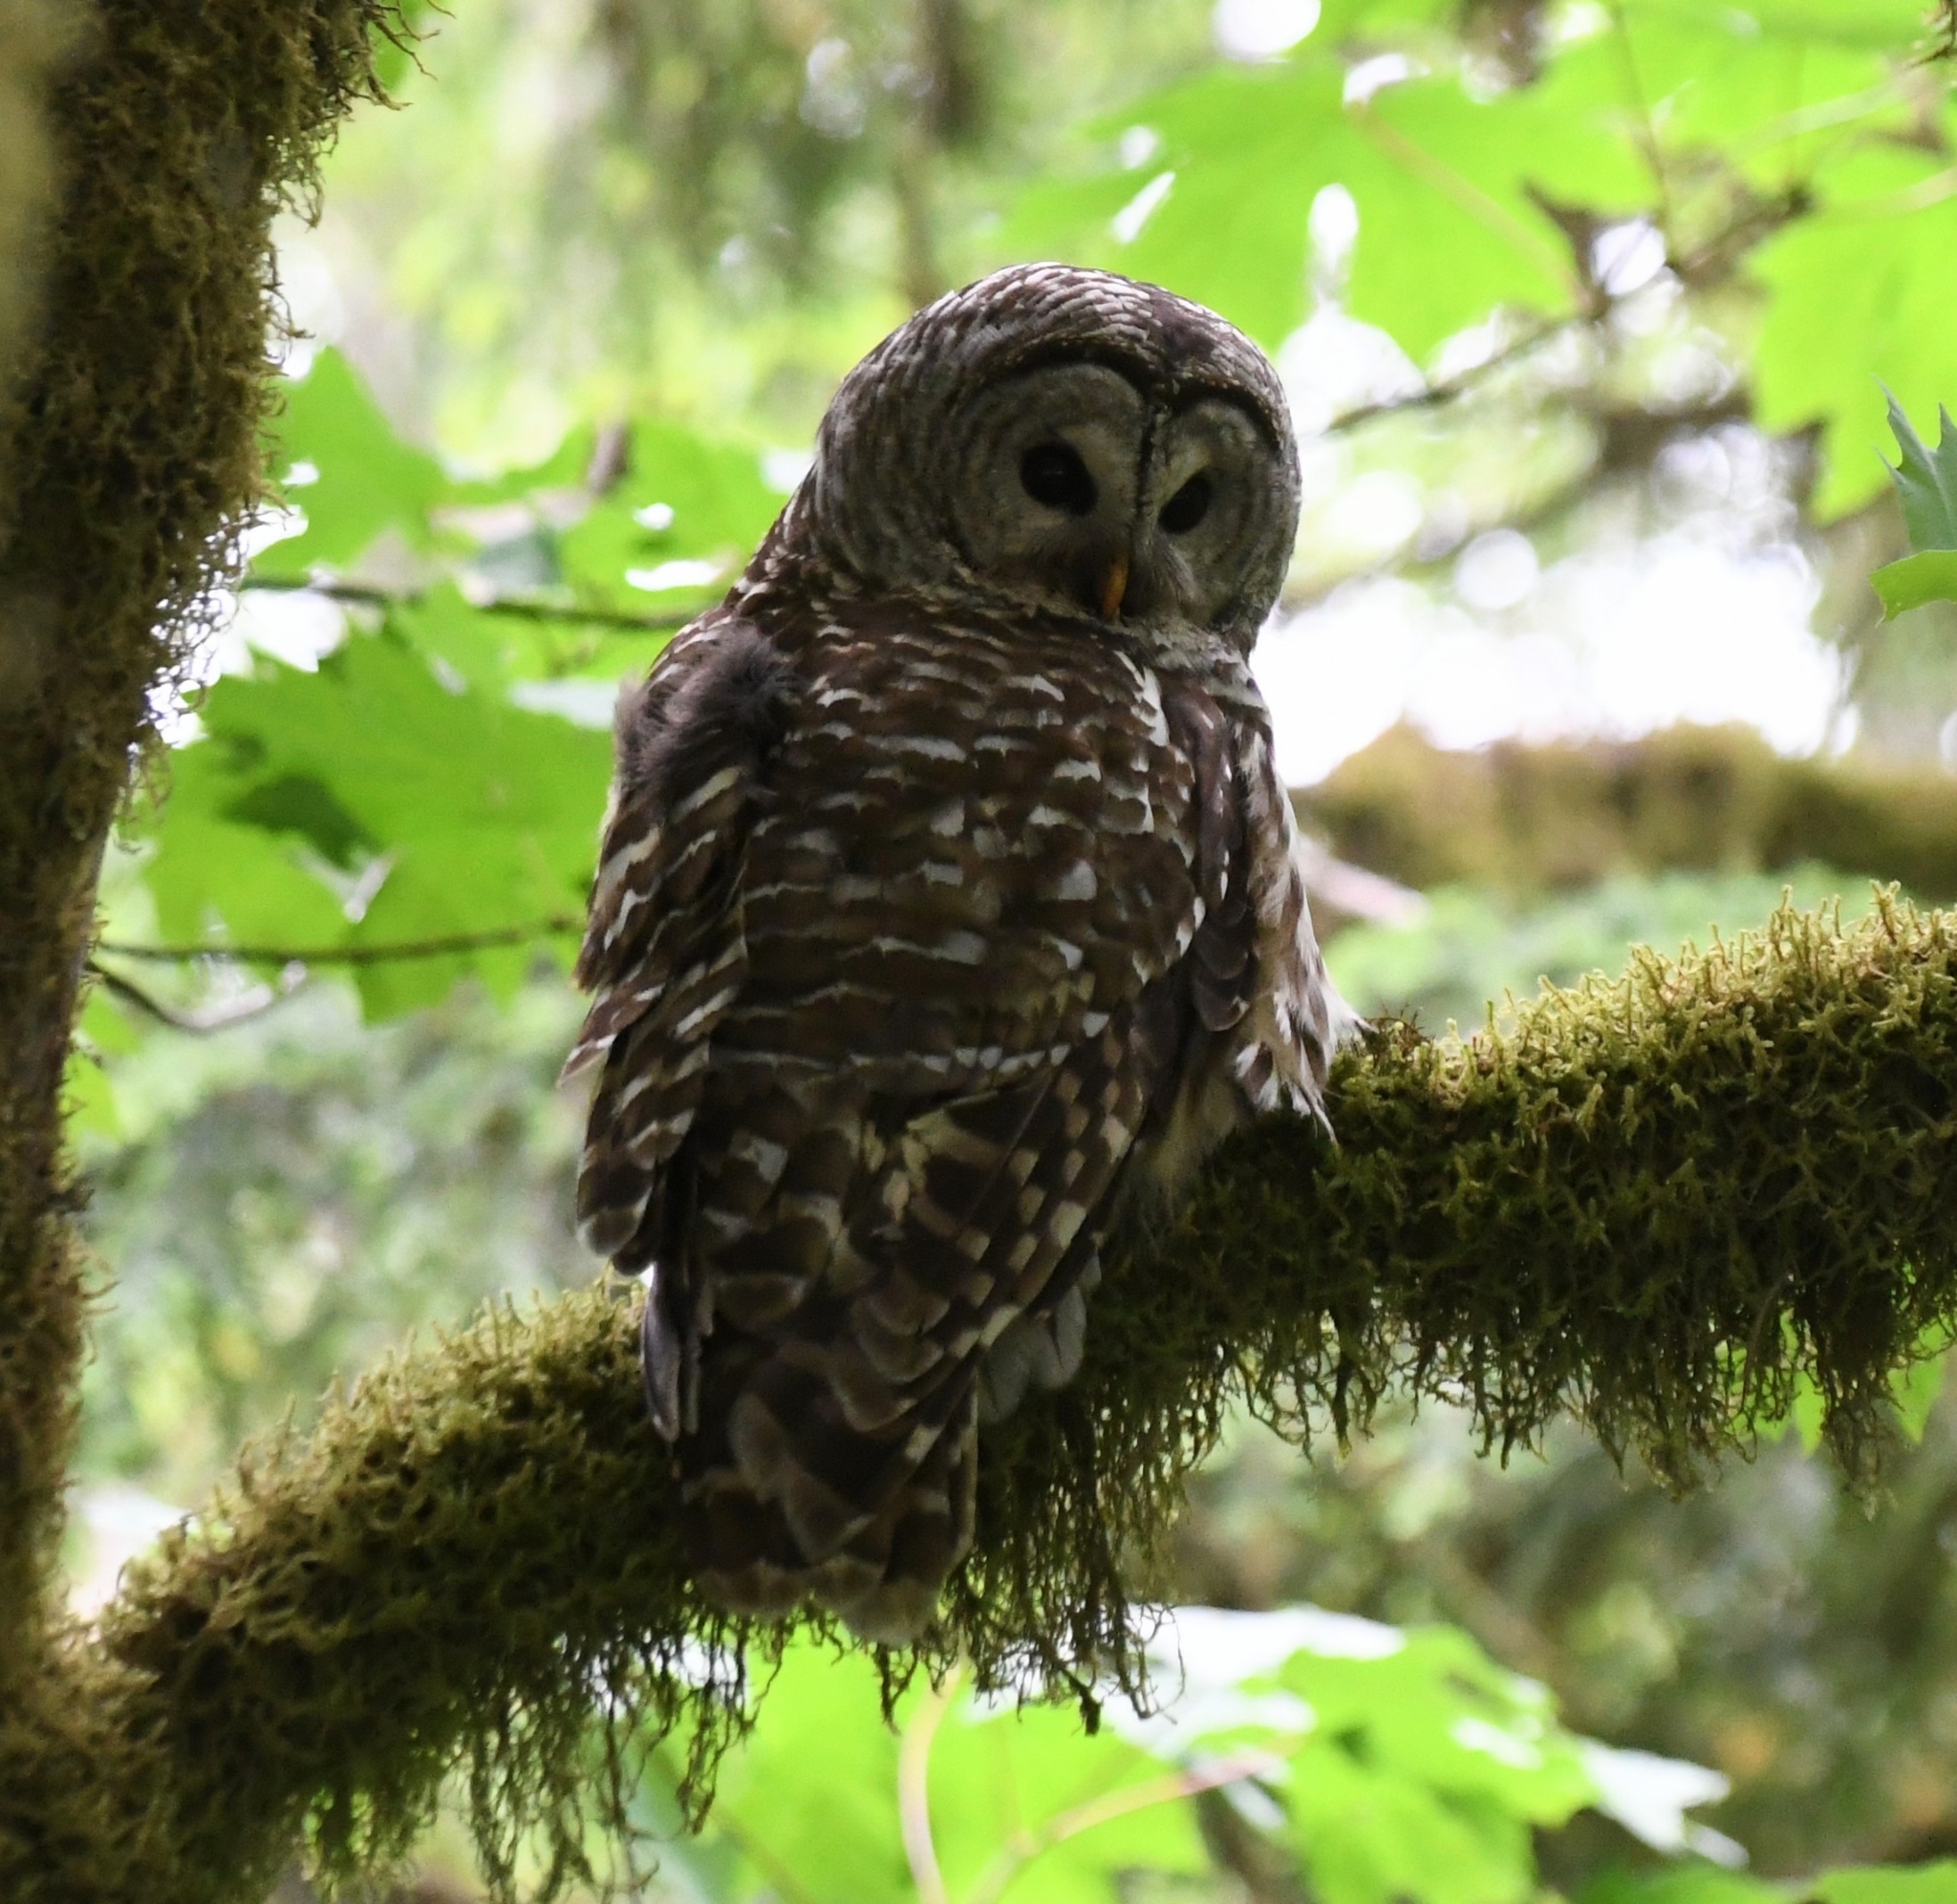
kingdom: Animalia
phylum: Chordata
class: Aves
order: Strigiformes
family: Strigidae
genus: Strix
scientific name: Strix varia
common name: Barred owl
